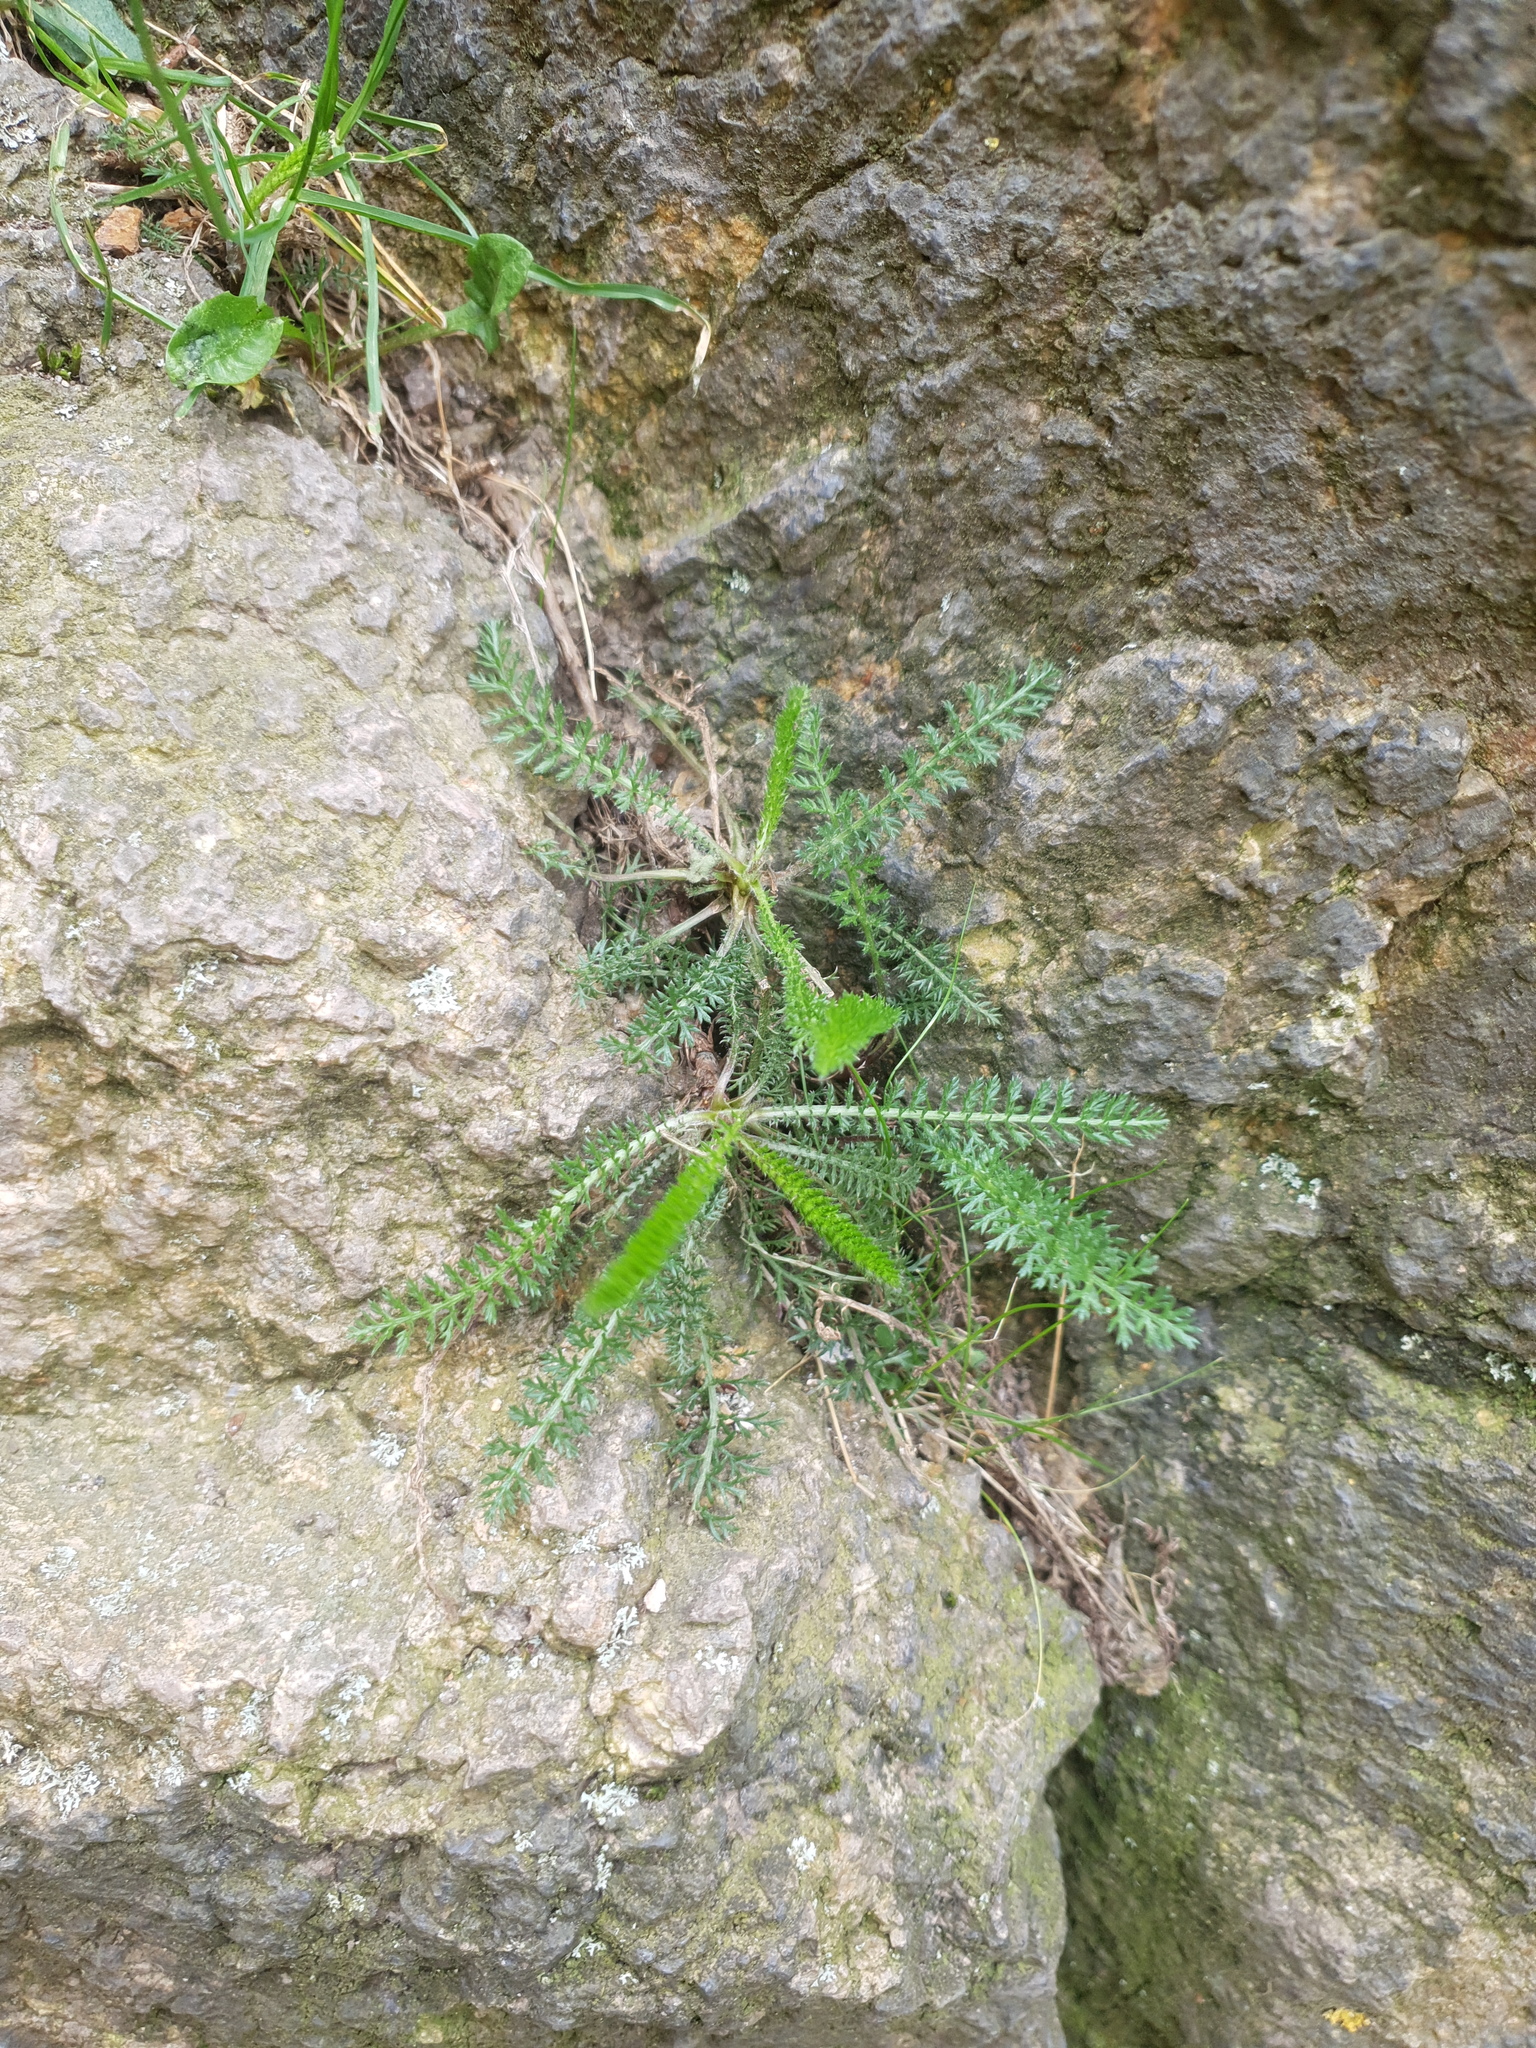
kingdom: Plantae
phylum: Tracheophyta
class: Magnoliopsida
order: Asterales
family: Asteraceae
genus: Achillea
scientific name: Achillea
